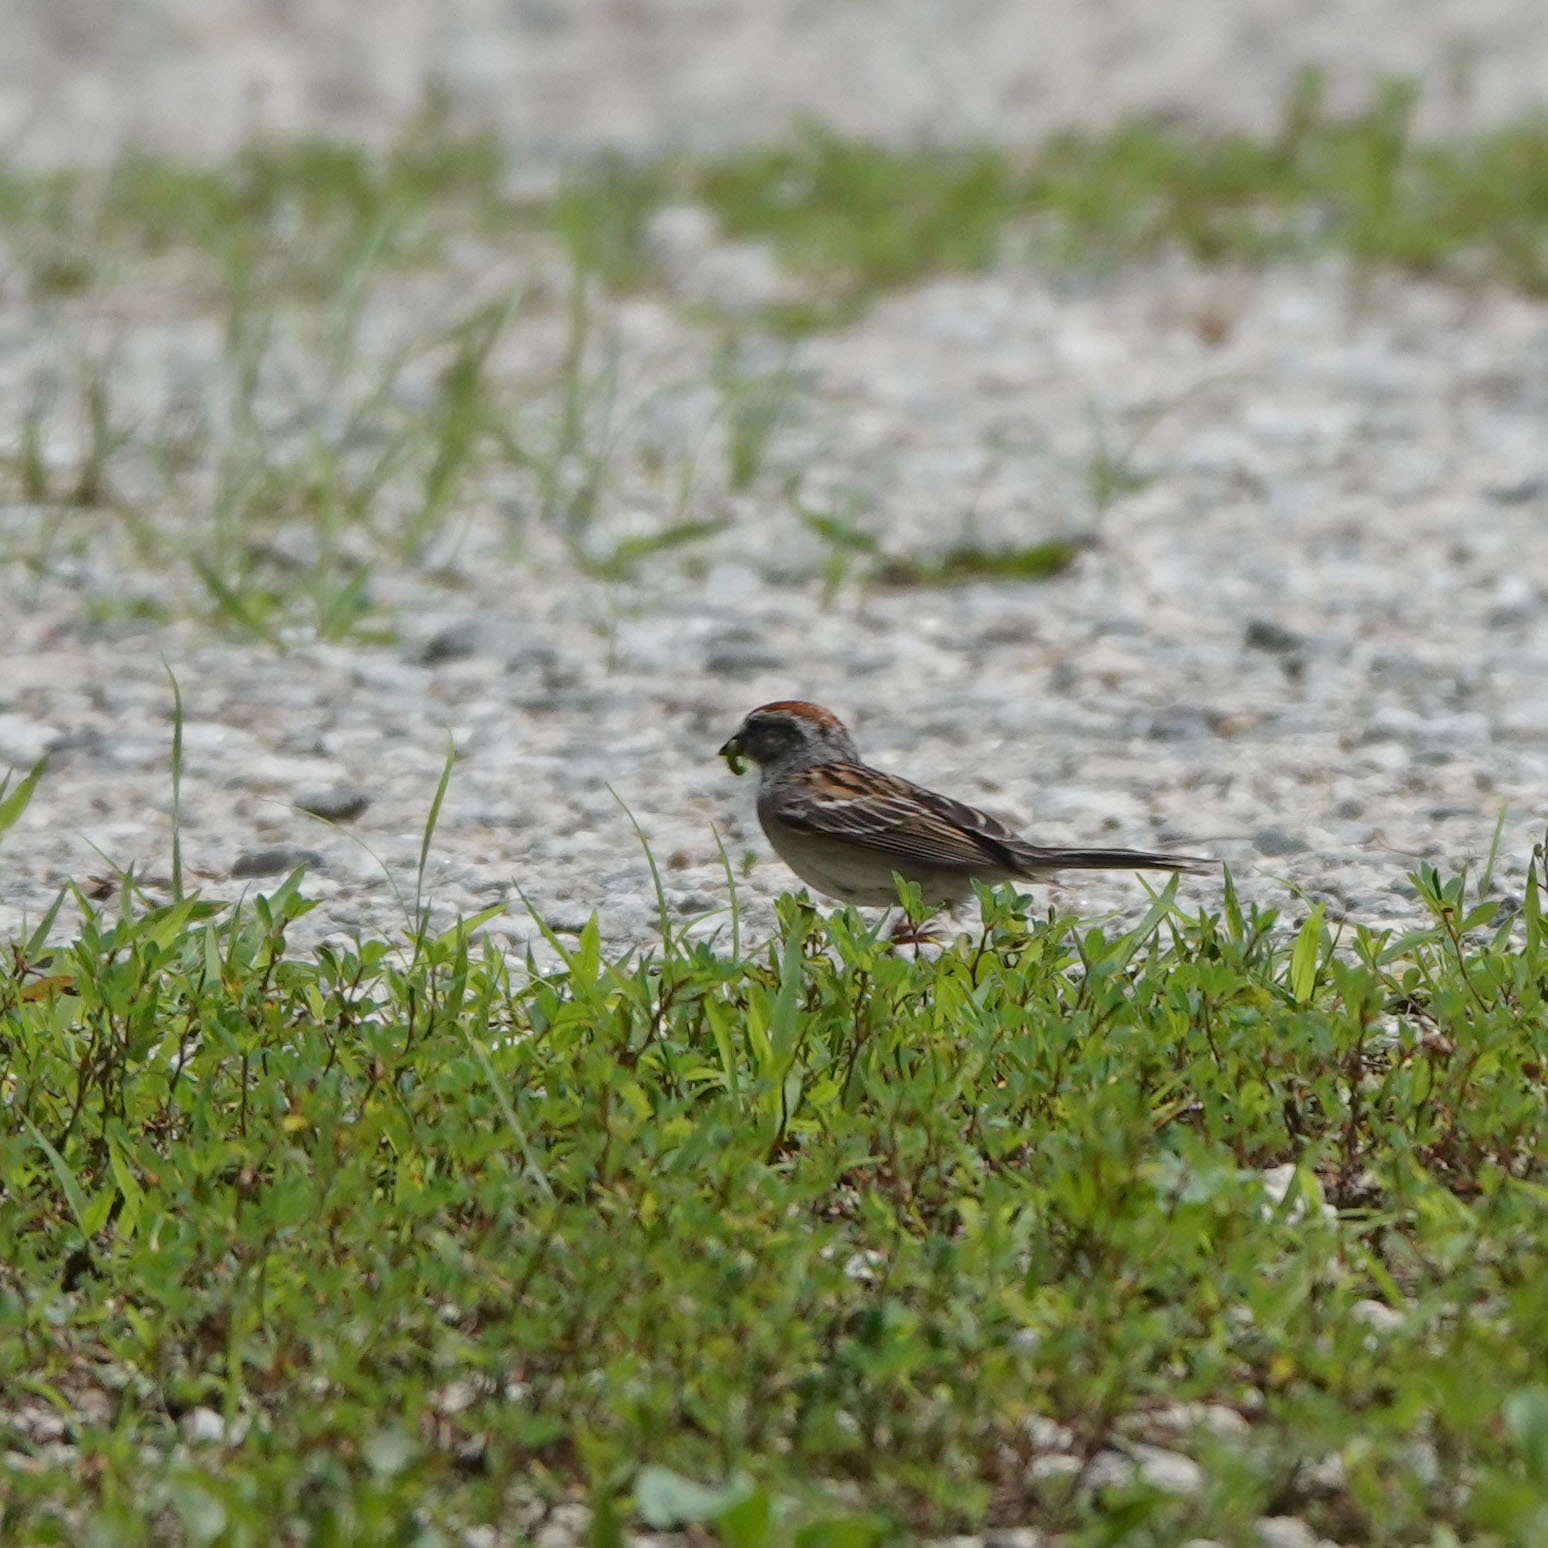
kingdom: Animalia
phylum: Chordata
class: Aves
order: Passeriformes
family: Passerellidae
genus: Spizella
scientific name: Spizella passerina
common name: Chipping sparrow
